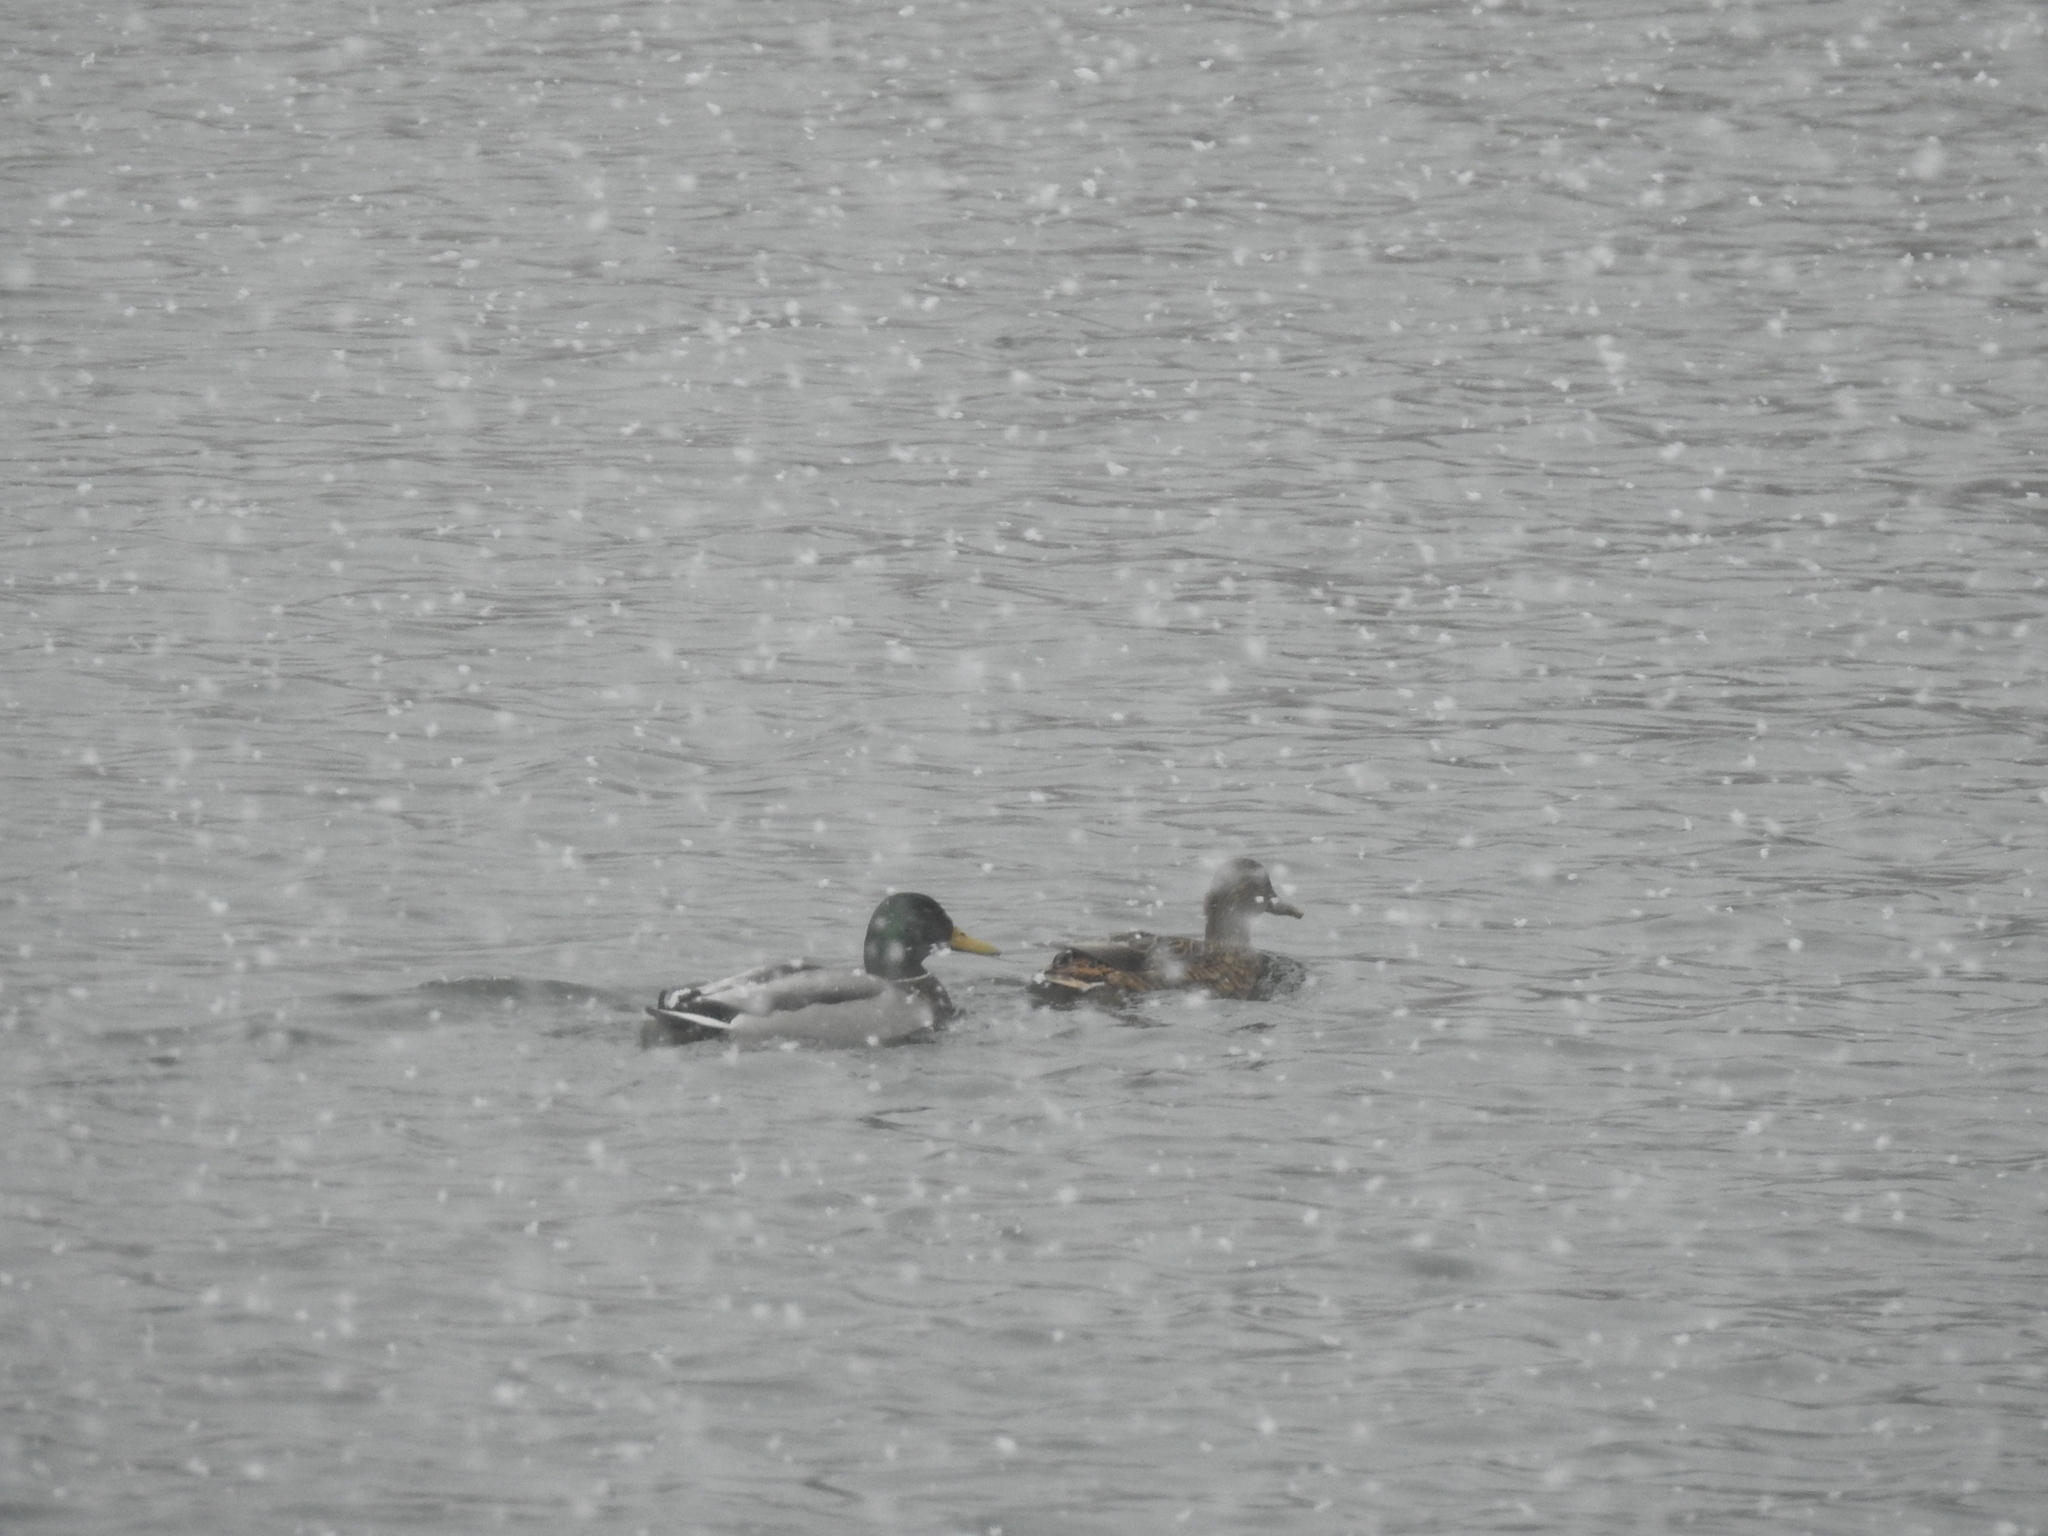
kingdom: Animalia
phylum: Chordata
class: Aves
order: Anseriformes
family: Anatidae
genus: Anas
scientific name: Anas platyrhynchos
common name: Mallard
